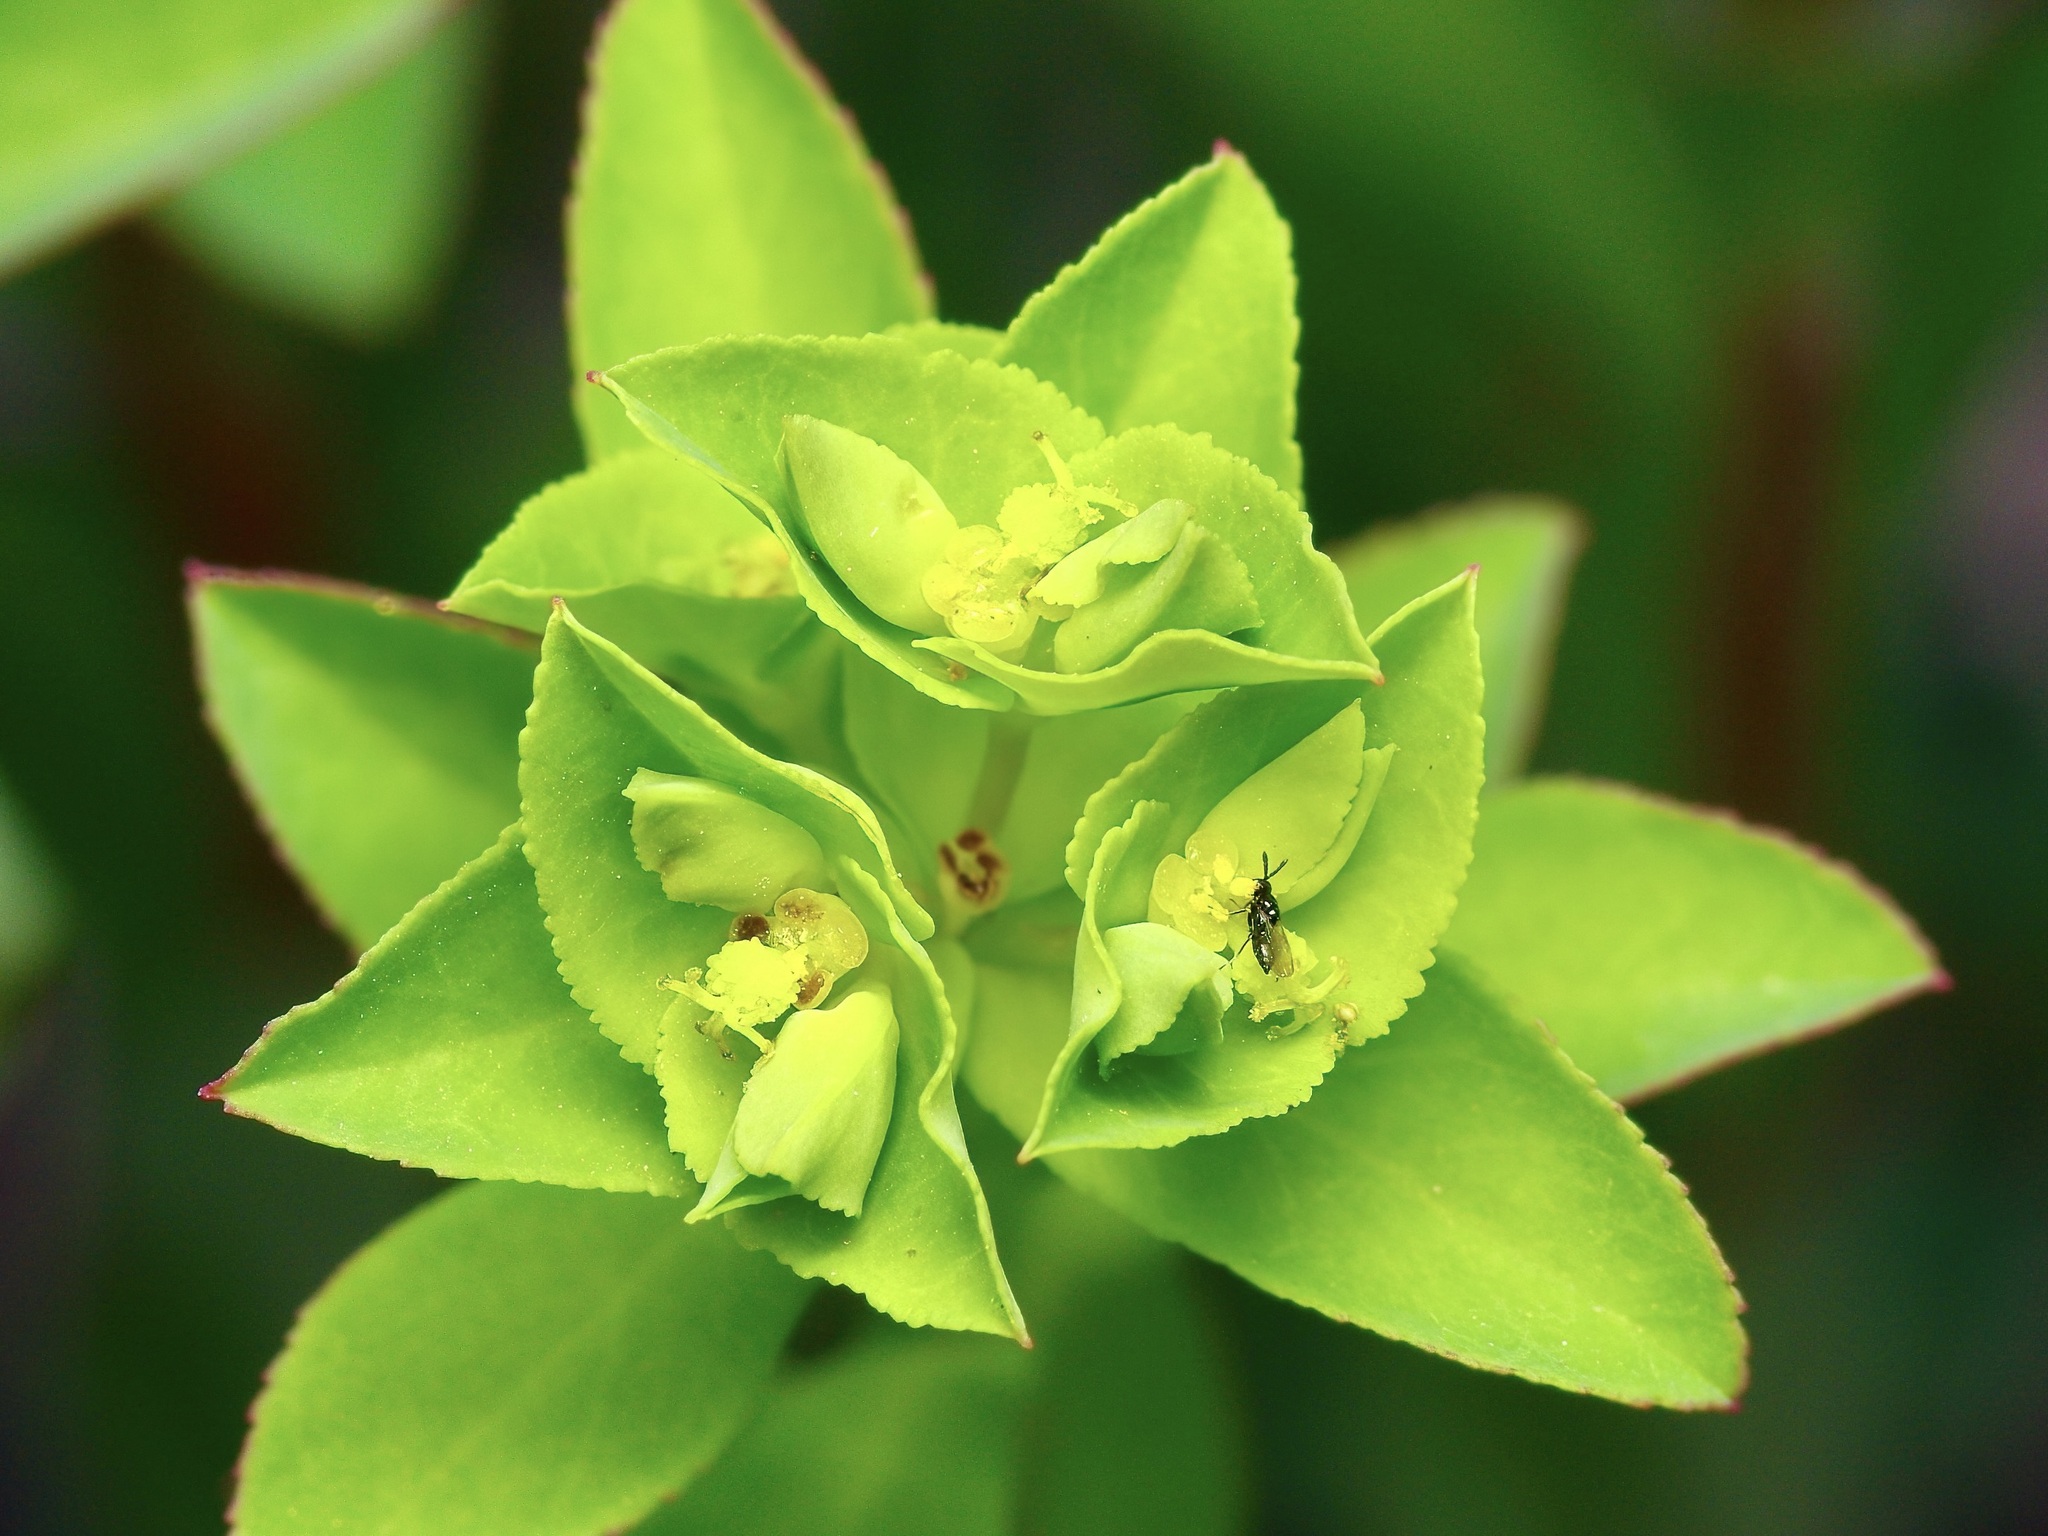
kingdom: Plantae
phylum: Tracheophyta
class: Magnoliopsida
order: Malpighiales
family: Euphorbiaceae
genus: Euphorbia
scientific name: Euphorbia spathulata
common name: Blunt spurge
